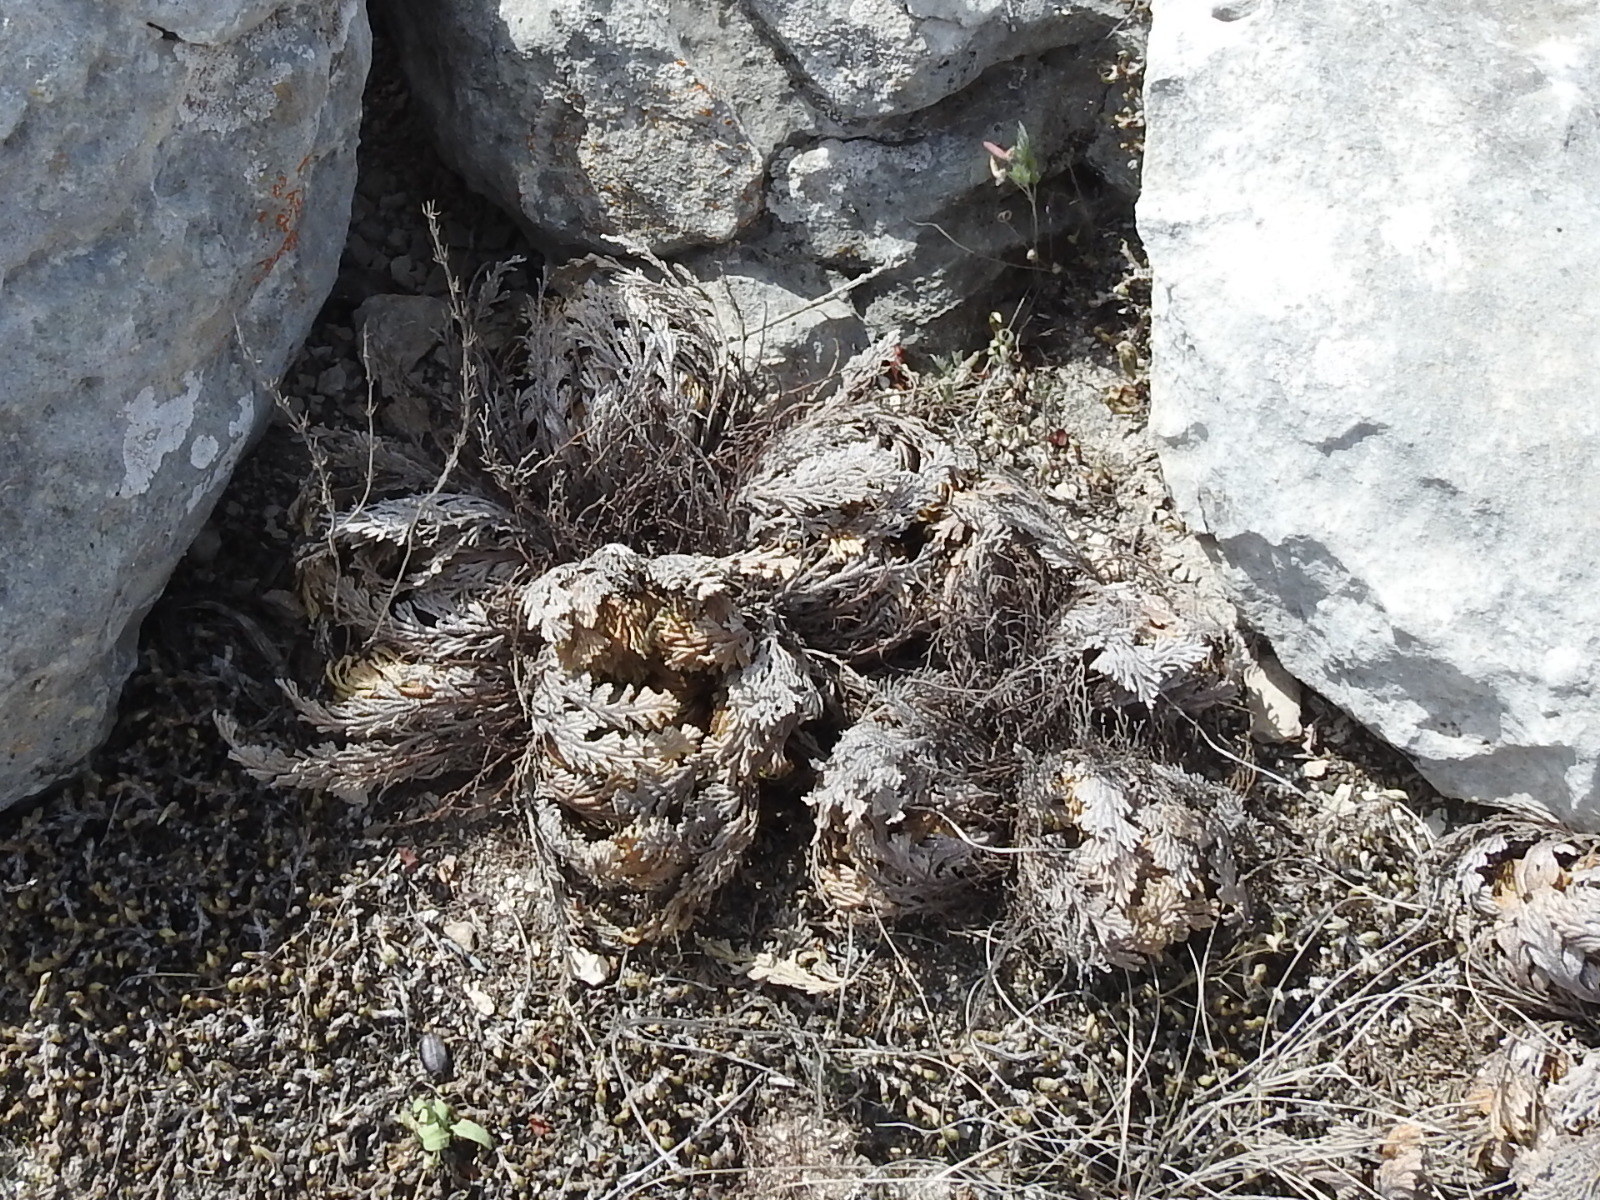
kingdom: Plantae
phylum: Tracheophyta
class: Lycopodiopsida
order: Selaginellales
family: Selaginellaceae
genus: Selaginella
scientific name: Selaginella lepidophylla
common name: Rose-of-jericho
